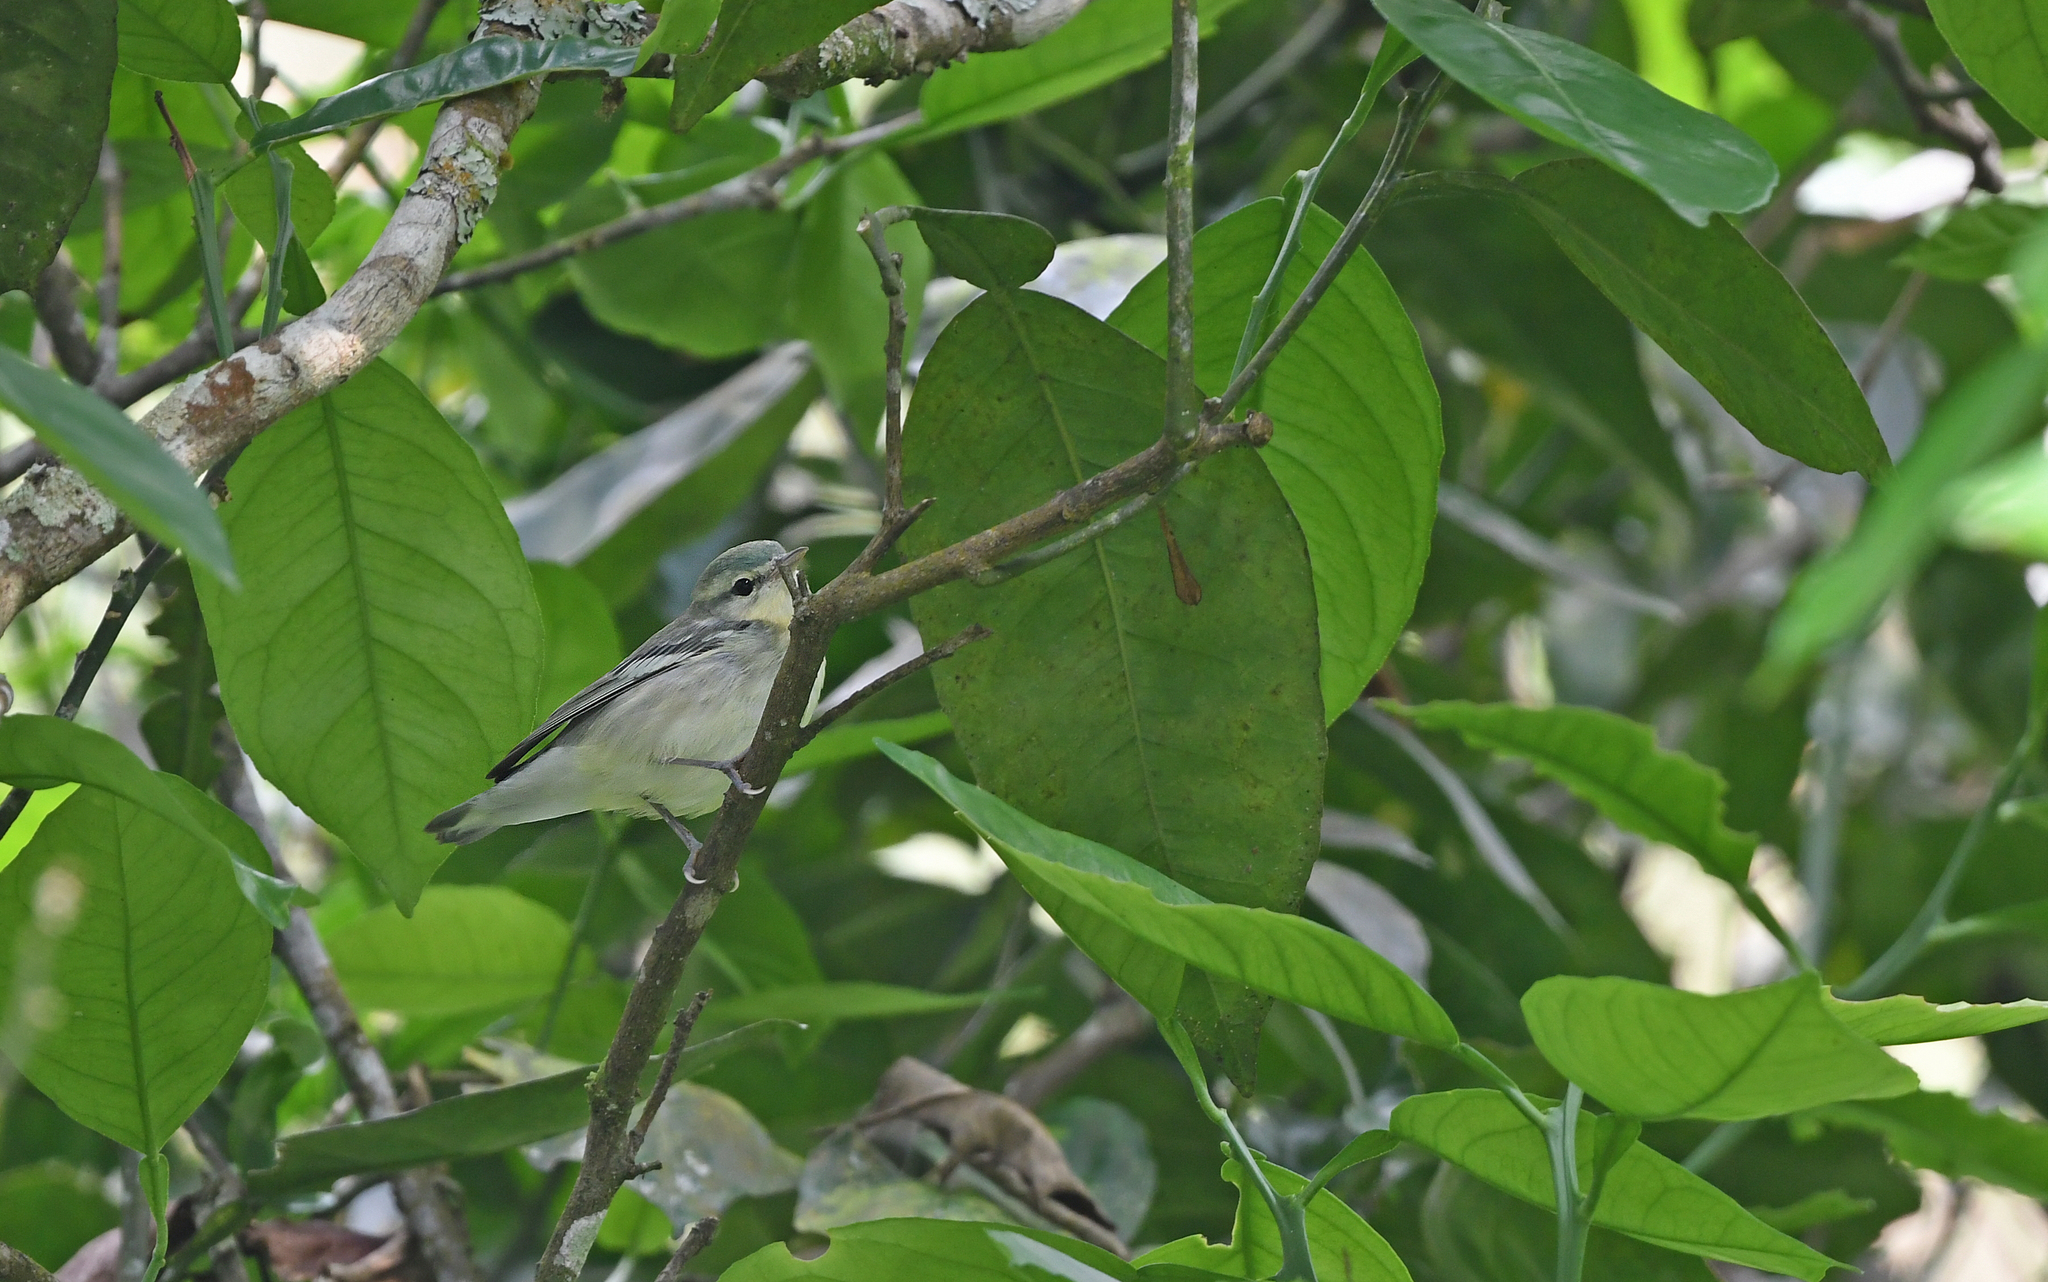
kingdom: Animalia
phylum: Chordata
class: Aves
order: Passeriformes
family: Parulidae
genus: Setophaga
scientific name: Setophaga cerulea
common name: Cerulean warbler
